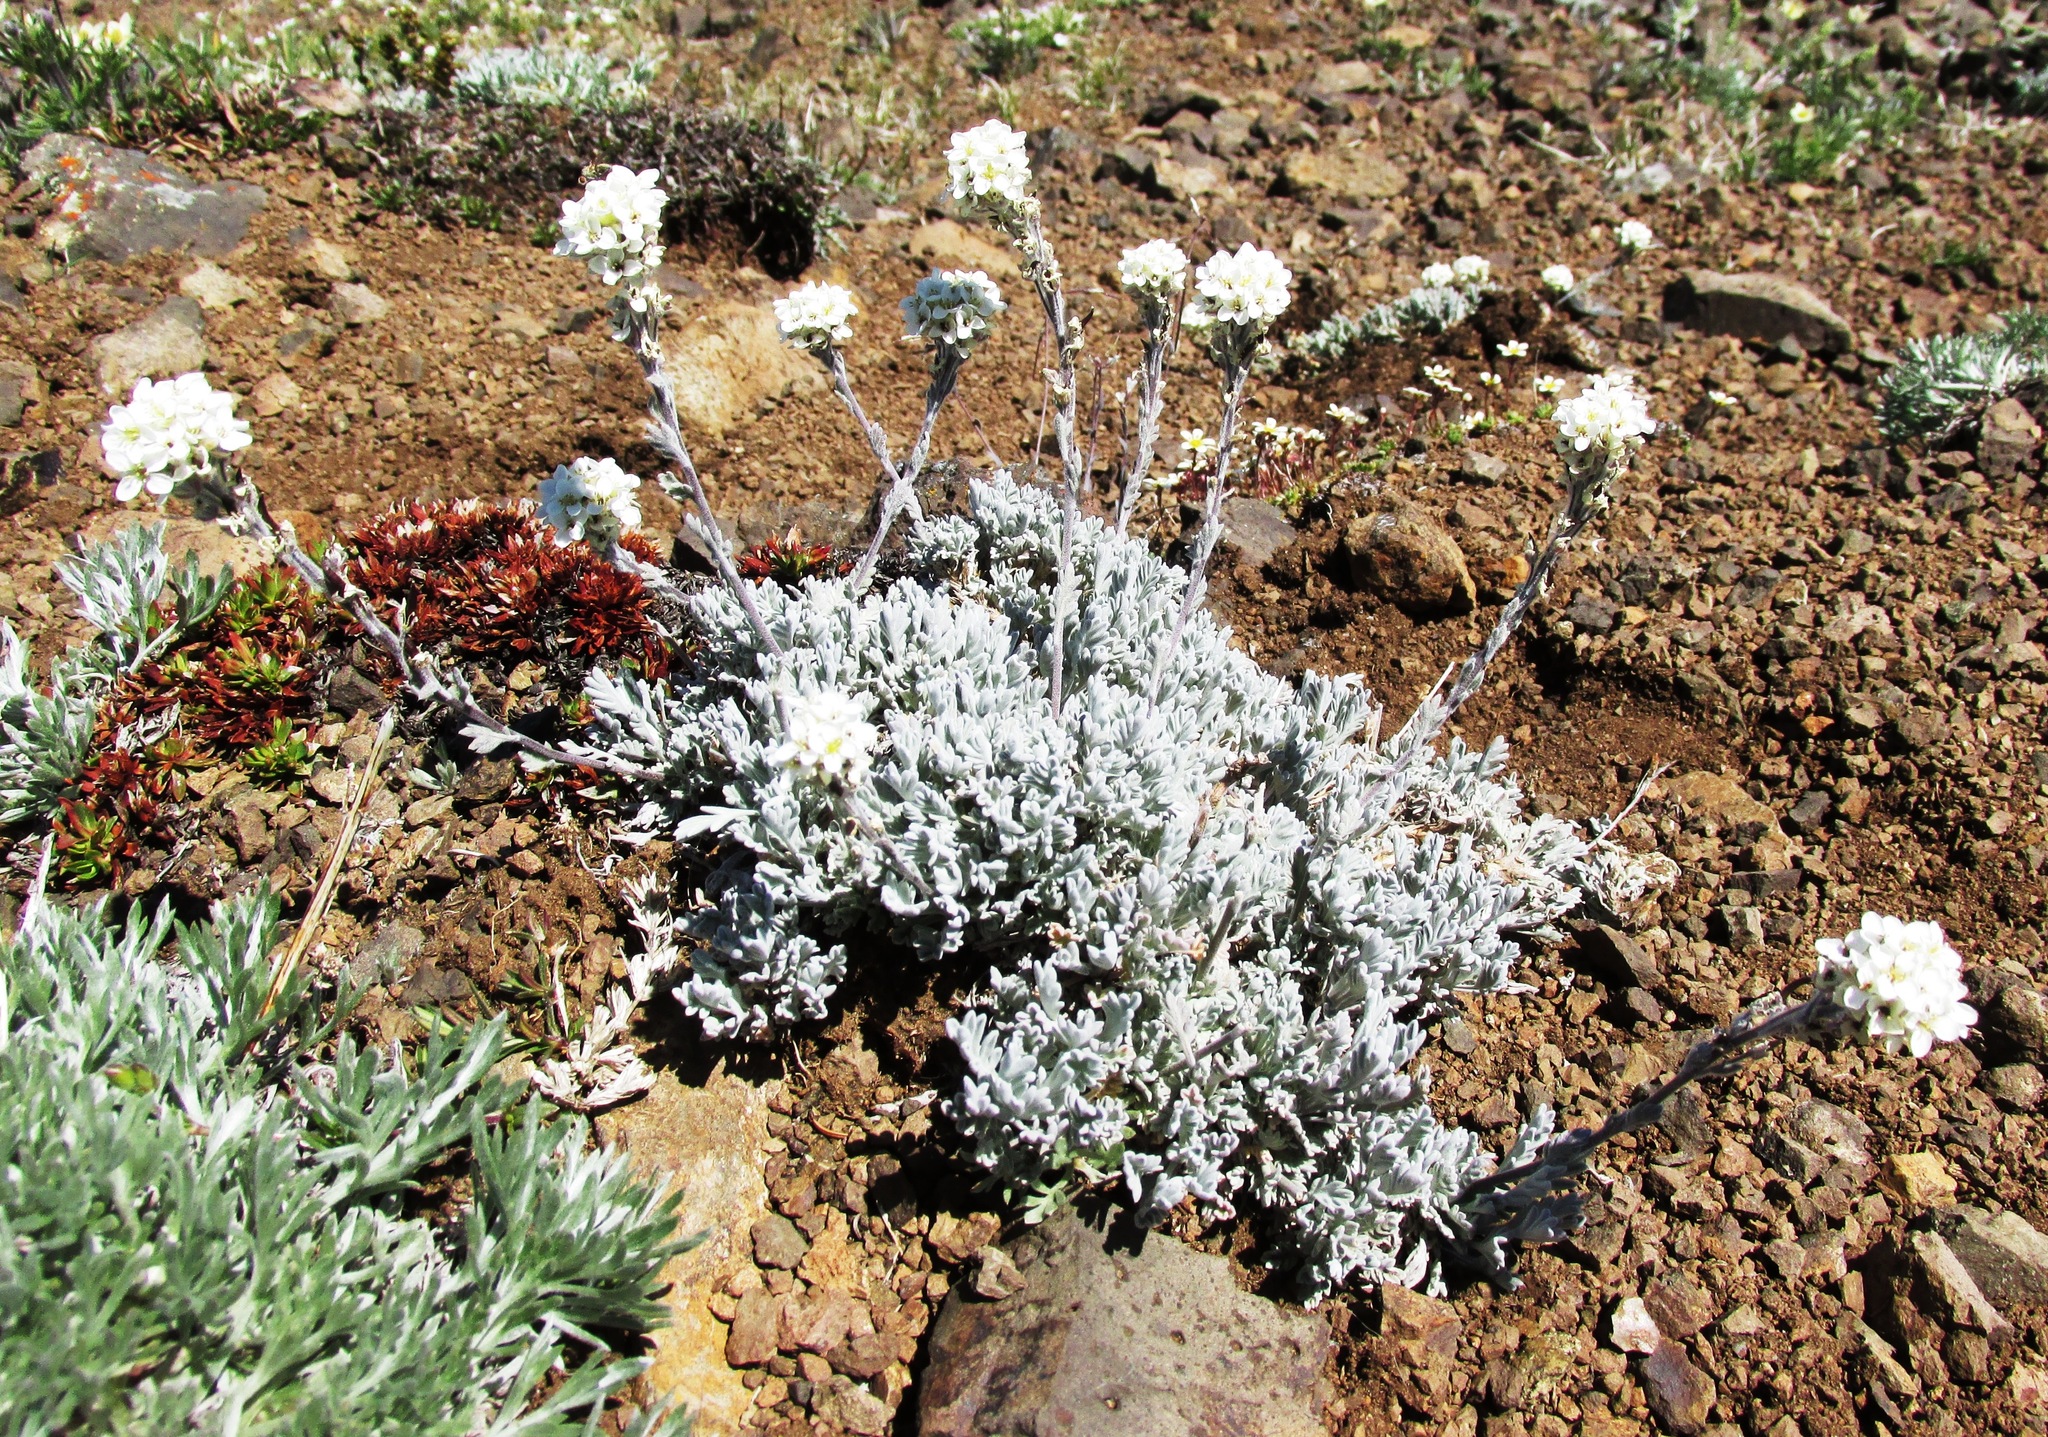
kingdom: Plantae
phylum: Tracheophyta
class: Magnoliopsida
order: Brassicales
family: Brassicaceae
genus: Smelowskia
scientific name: Smelowskia americana
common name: American false candytuft
